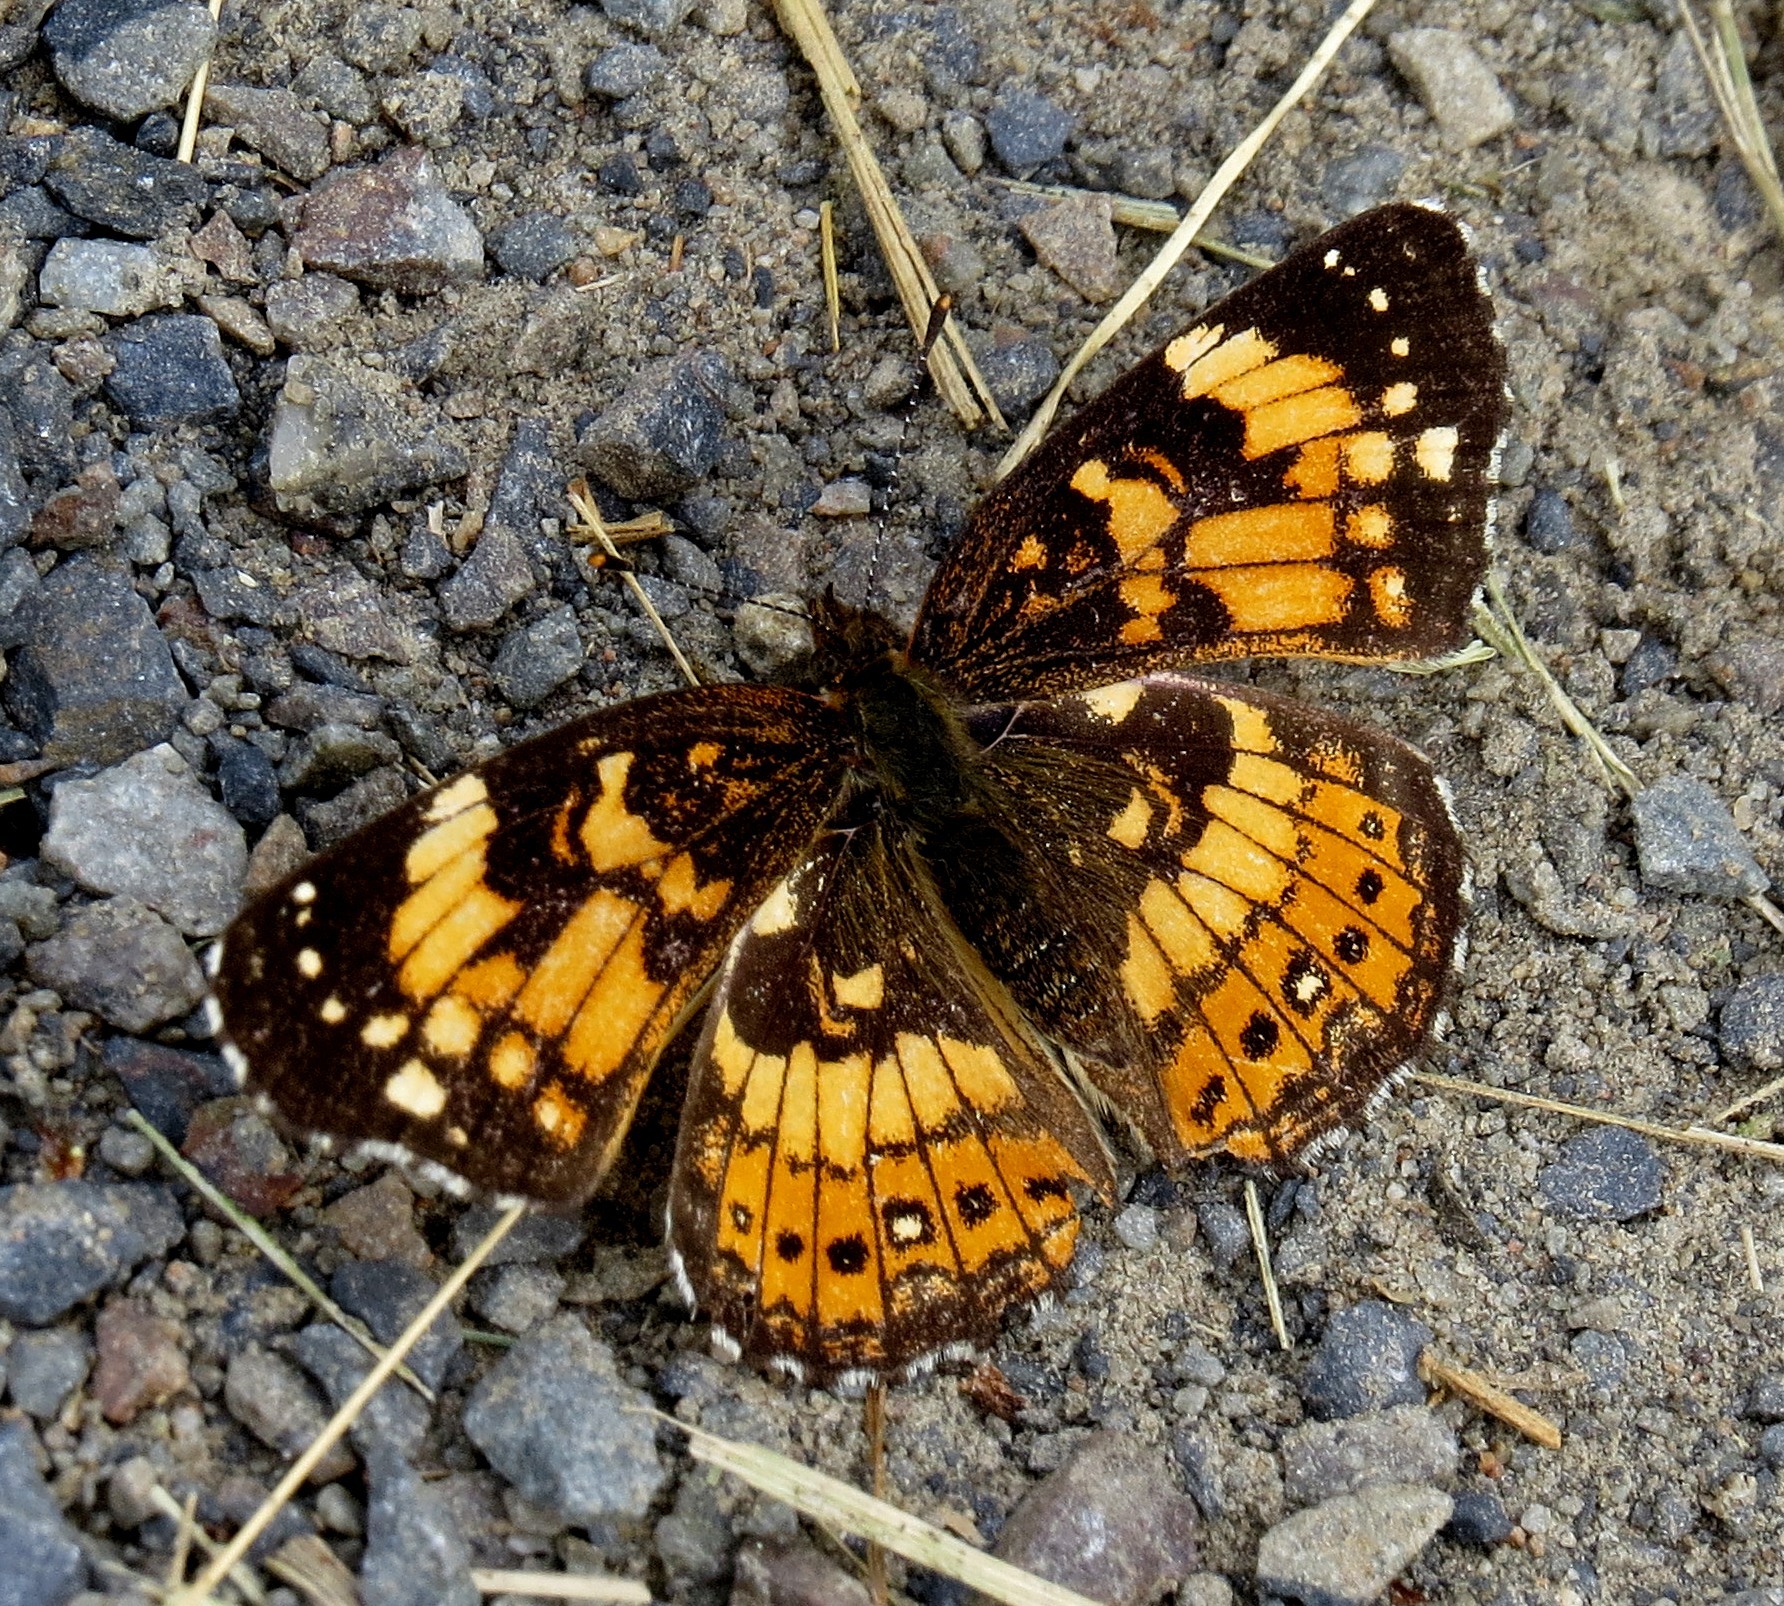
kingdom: Animalia
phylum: Arthropoda
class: Insecta
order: Lepidoptera
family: Nymphalidae
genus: Chlosyne
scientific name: Chlosyne nycteis
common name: Silvery checkerspot
